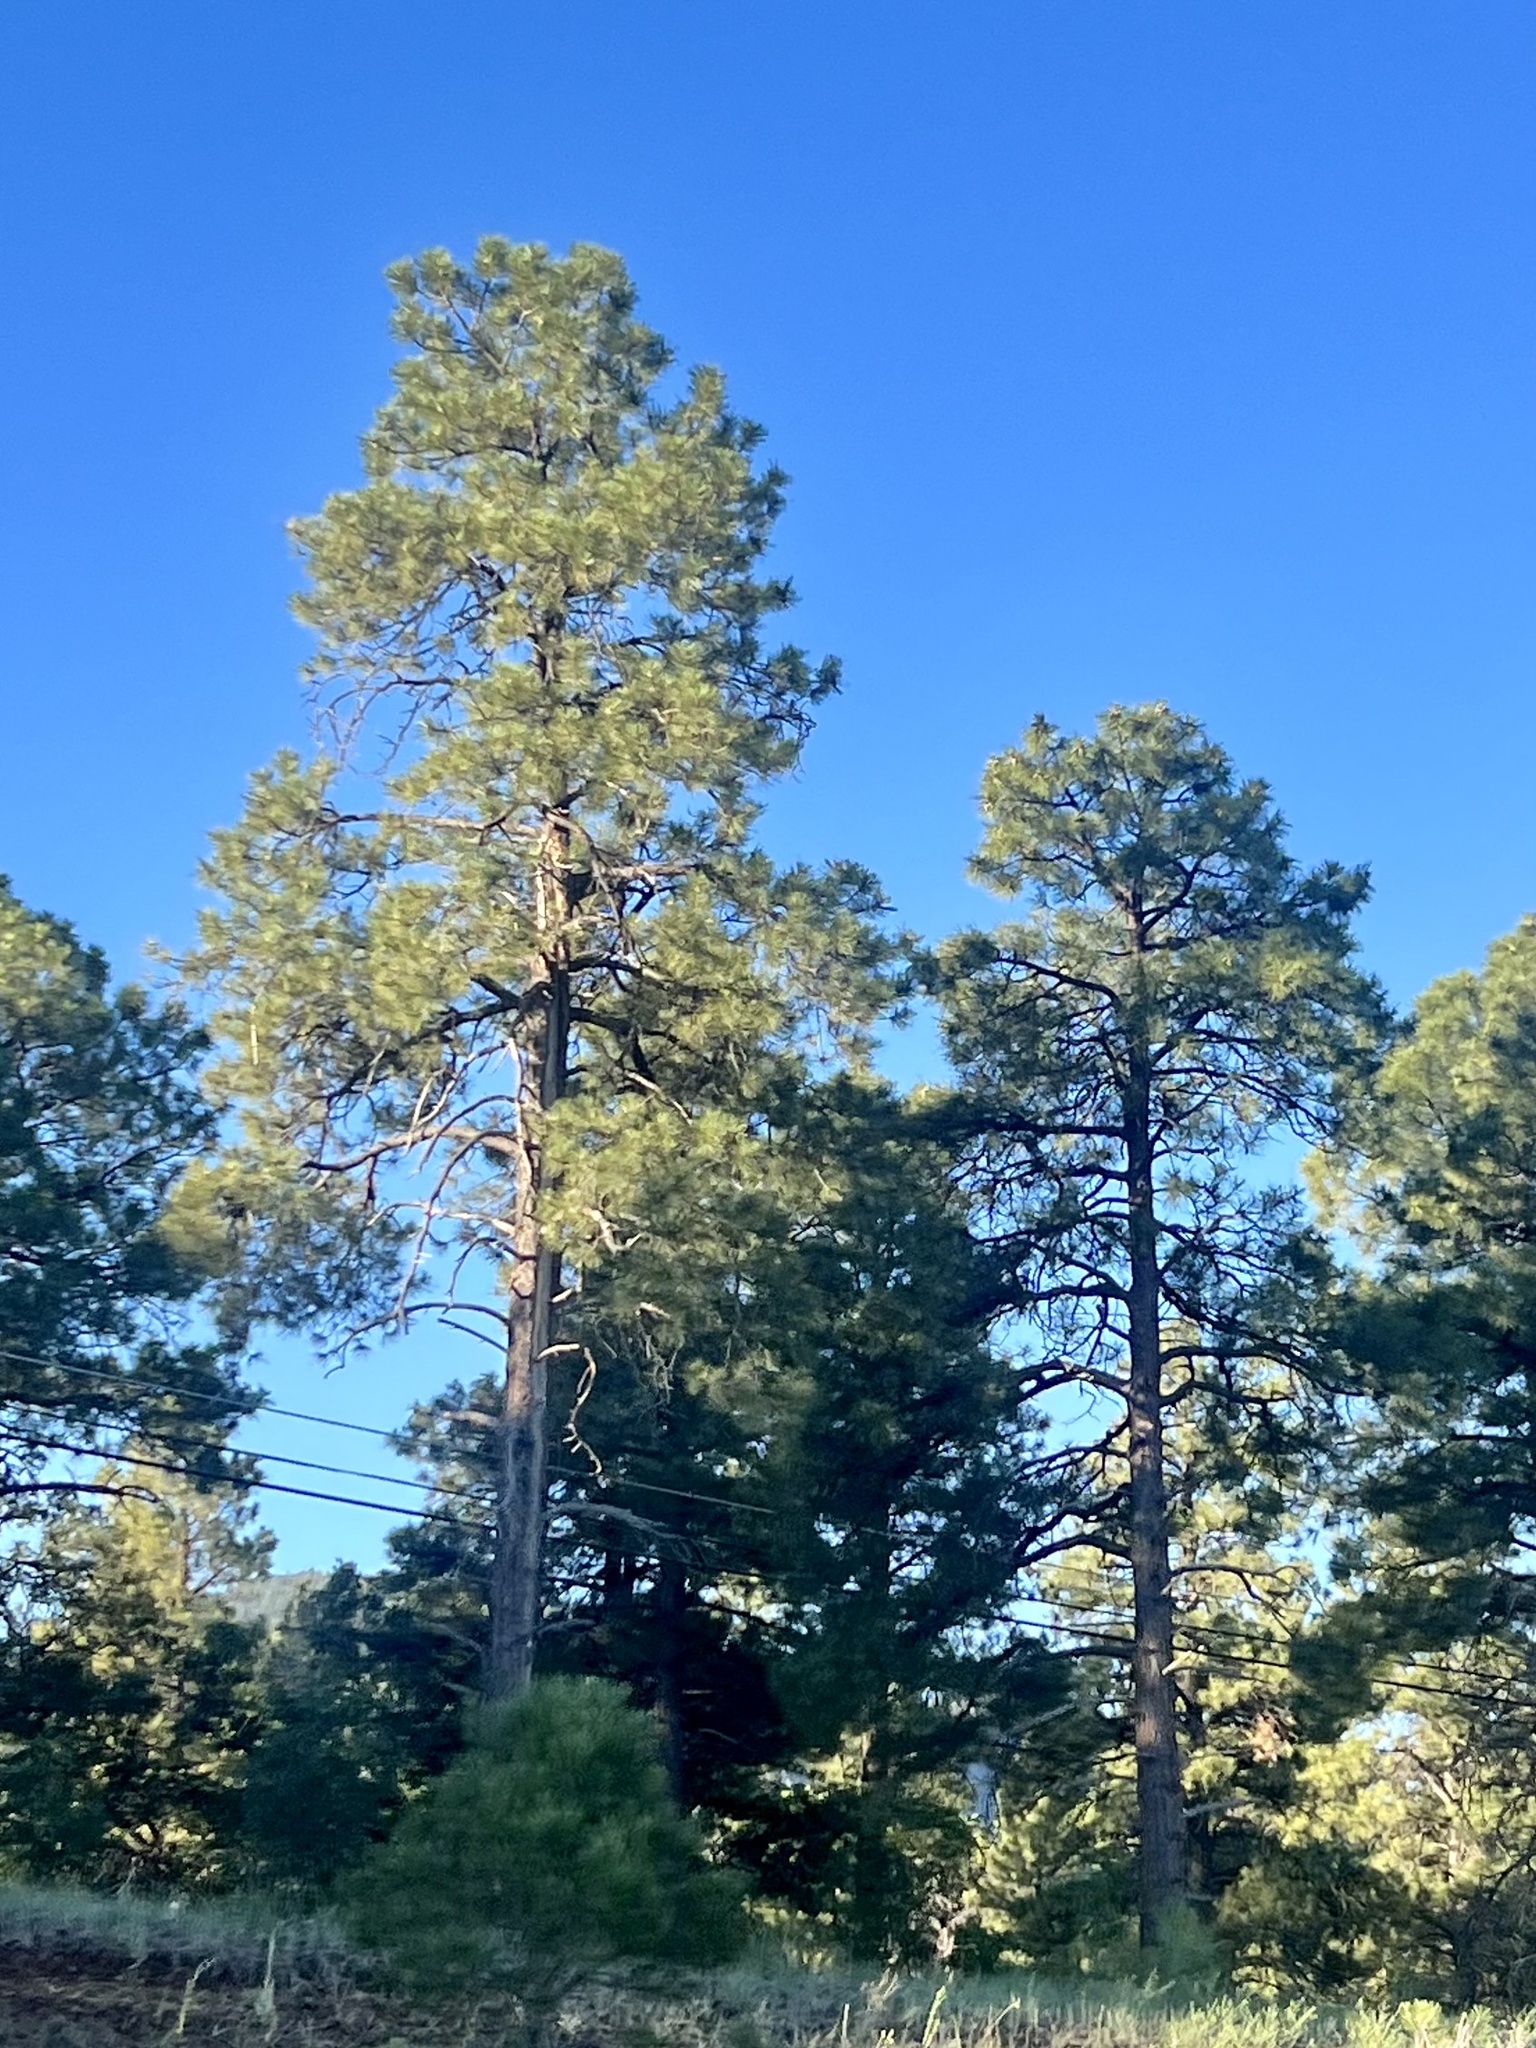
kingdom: Plantae
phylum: Tracheophyta
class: Pinopsida
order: Pinales
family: Pinaceae
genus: Pinus
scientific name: Pinus ponderosa
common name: Western yellow-pine
